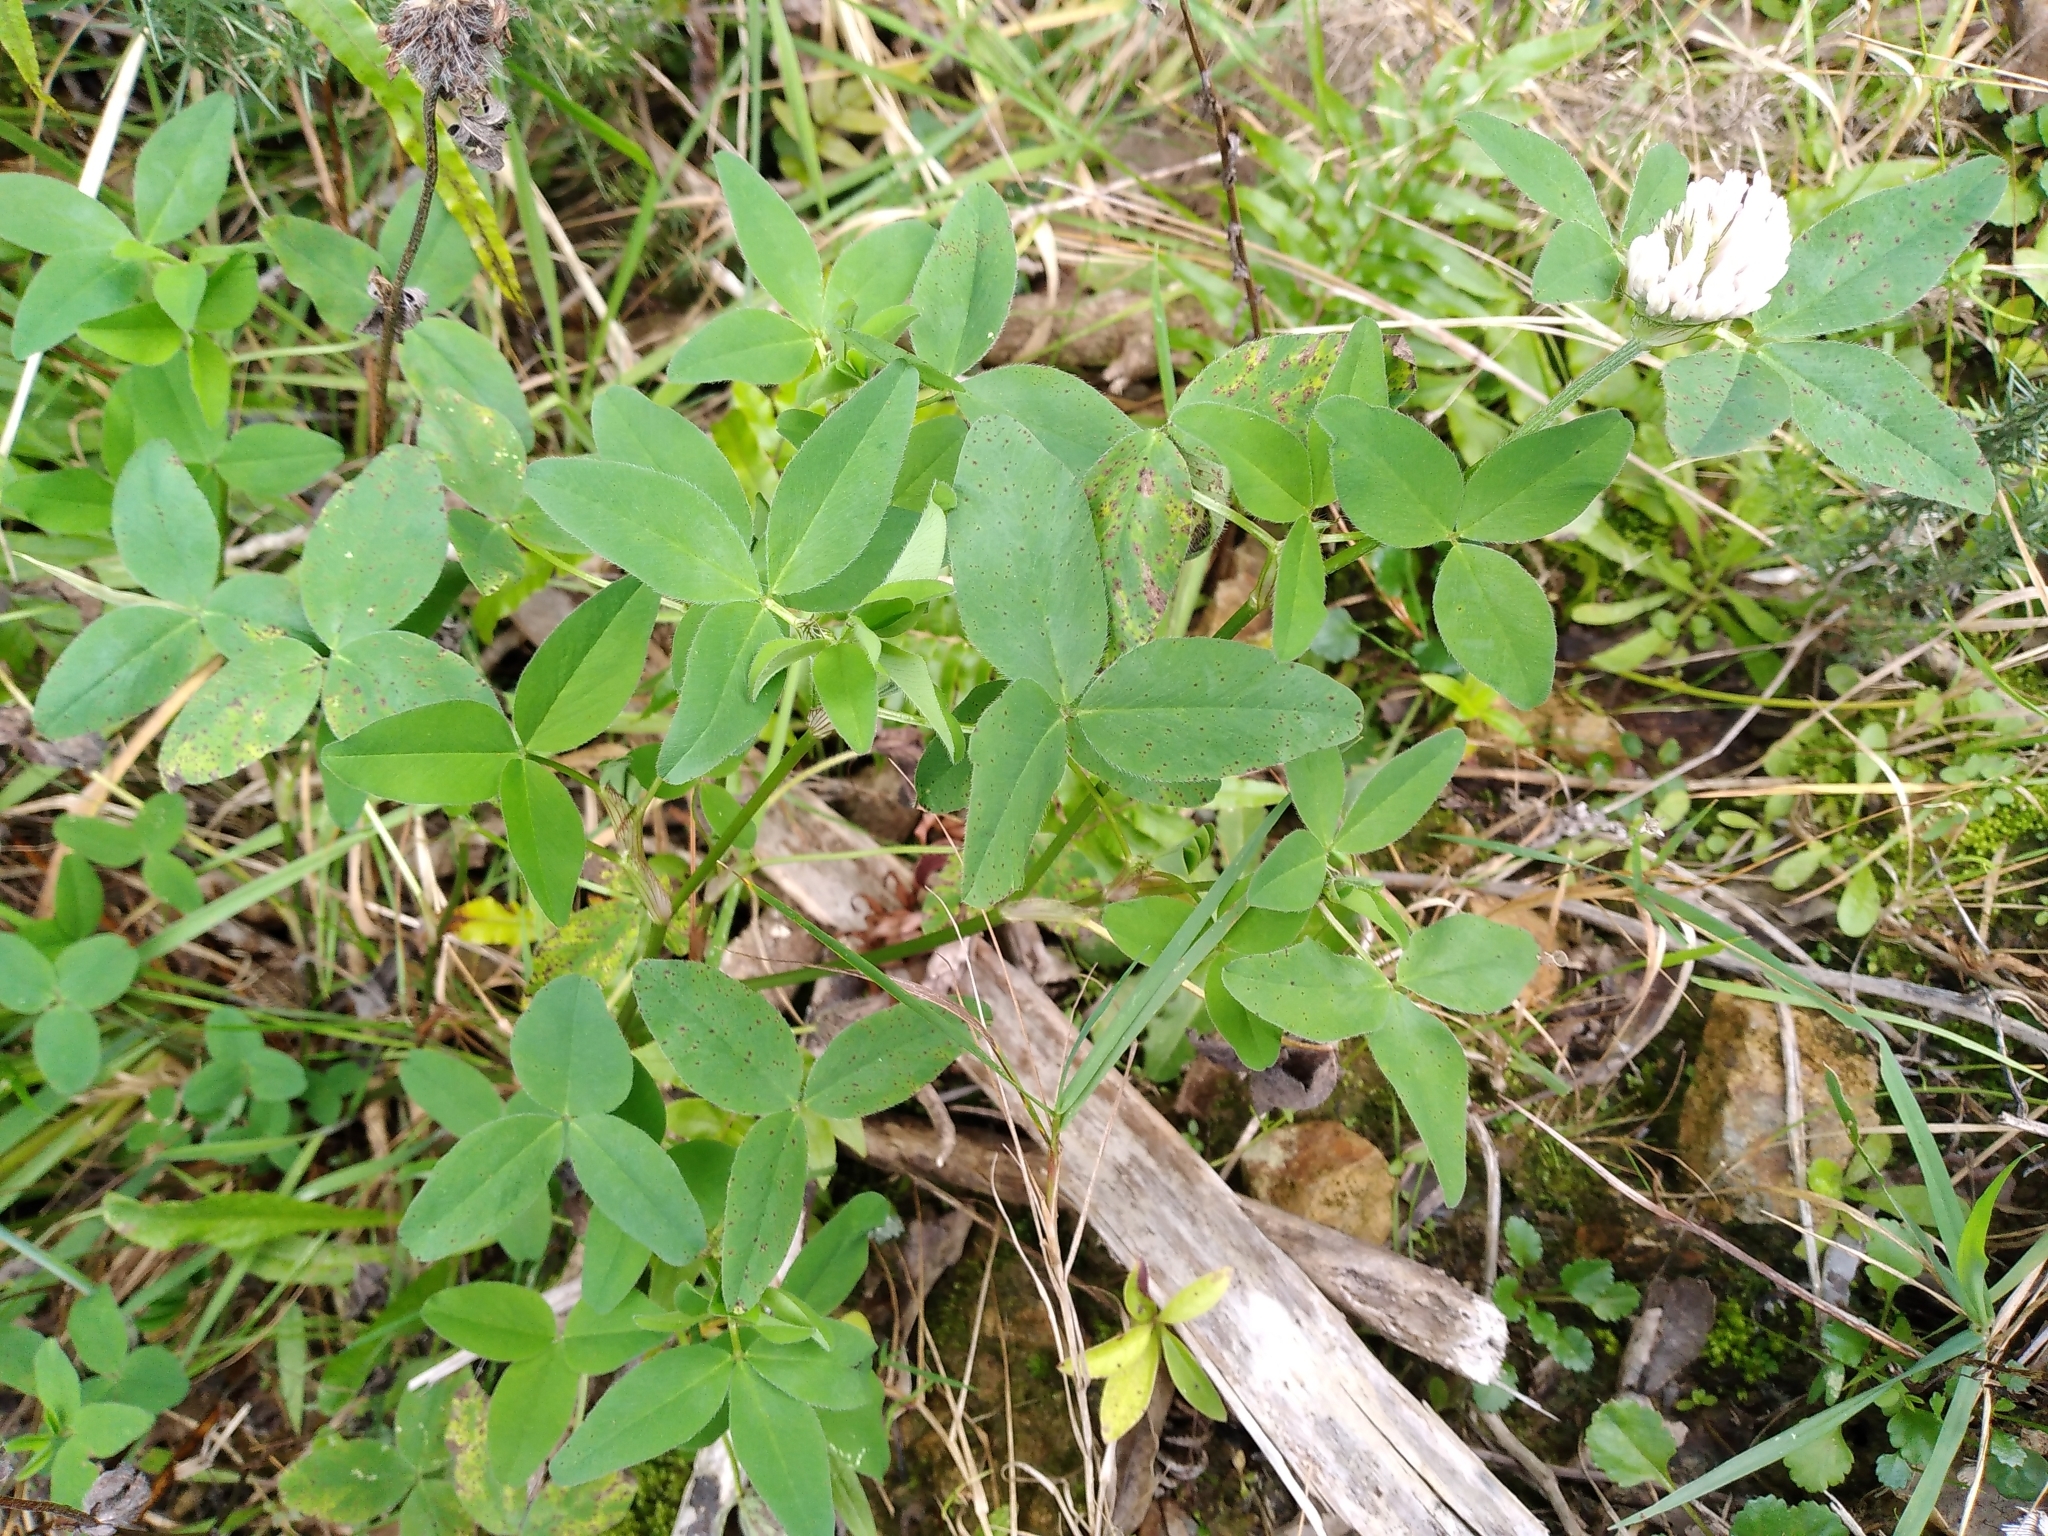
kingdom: Plantae
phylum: Tracheophyta
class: Magnoliopsida
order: Fabales
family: Fabaceae
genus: Trifolium
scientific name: Trifolium pratense
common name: Red clover
